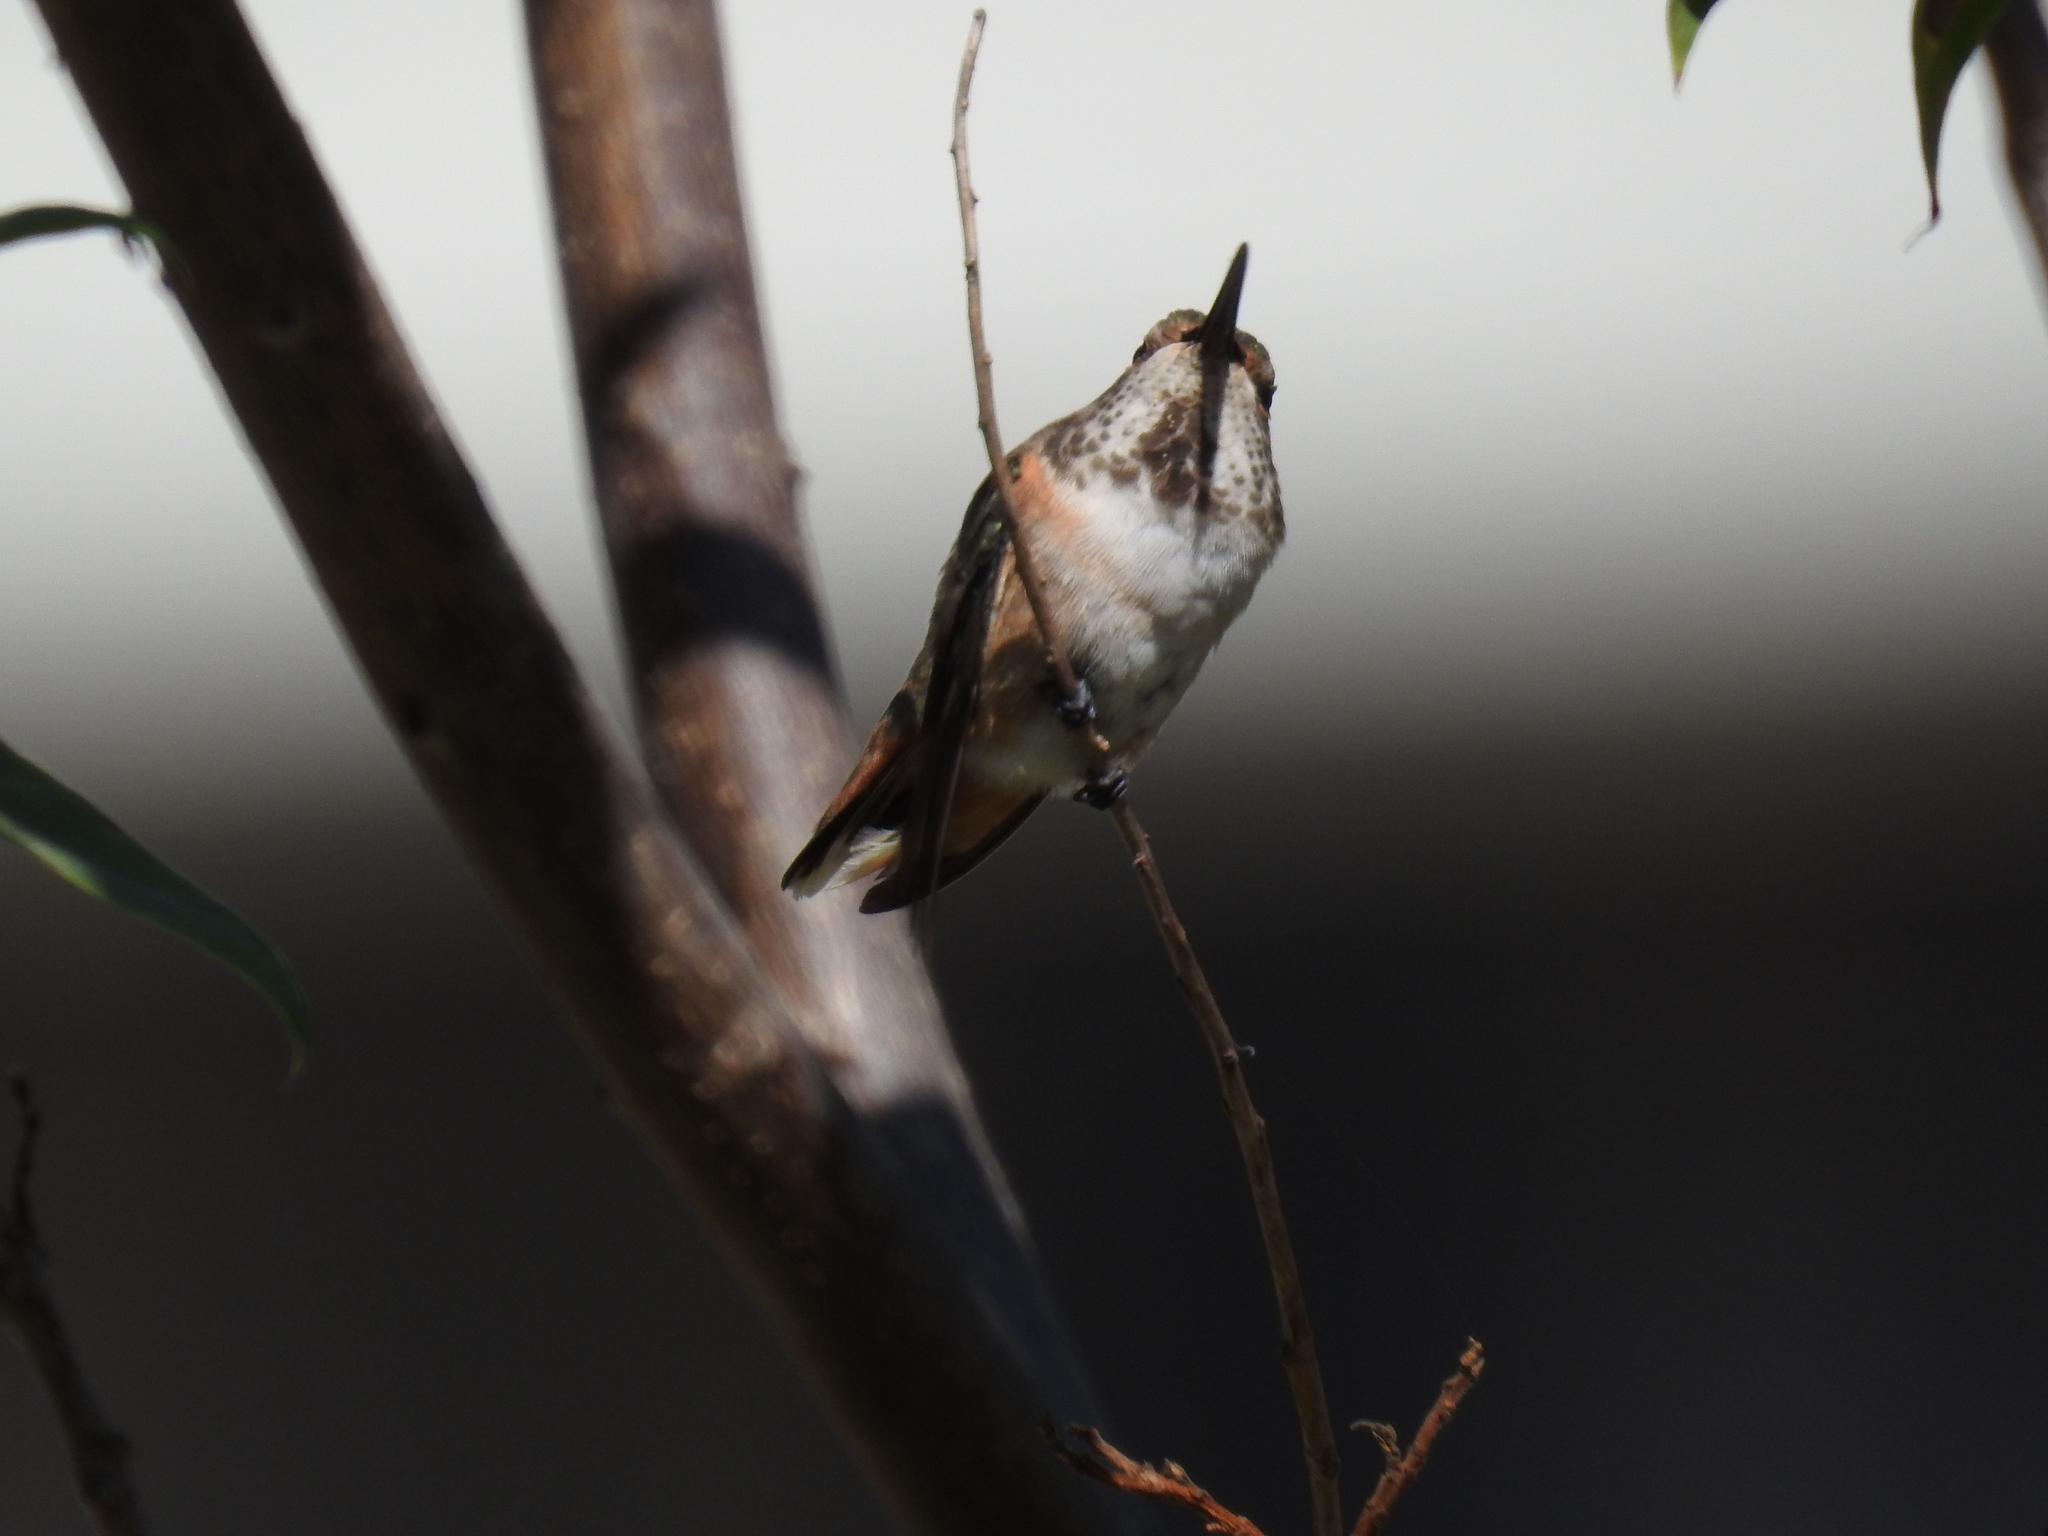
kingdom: Animalia
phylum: Chordata
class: Aves
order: Apodiformes
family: Trochilidae
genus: Selasphorus
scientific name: Selasphorus
